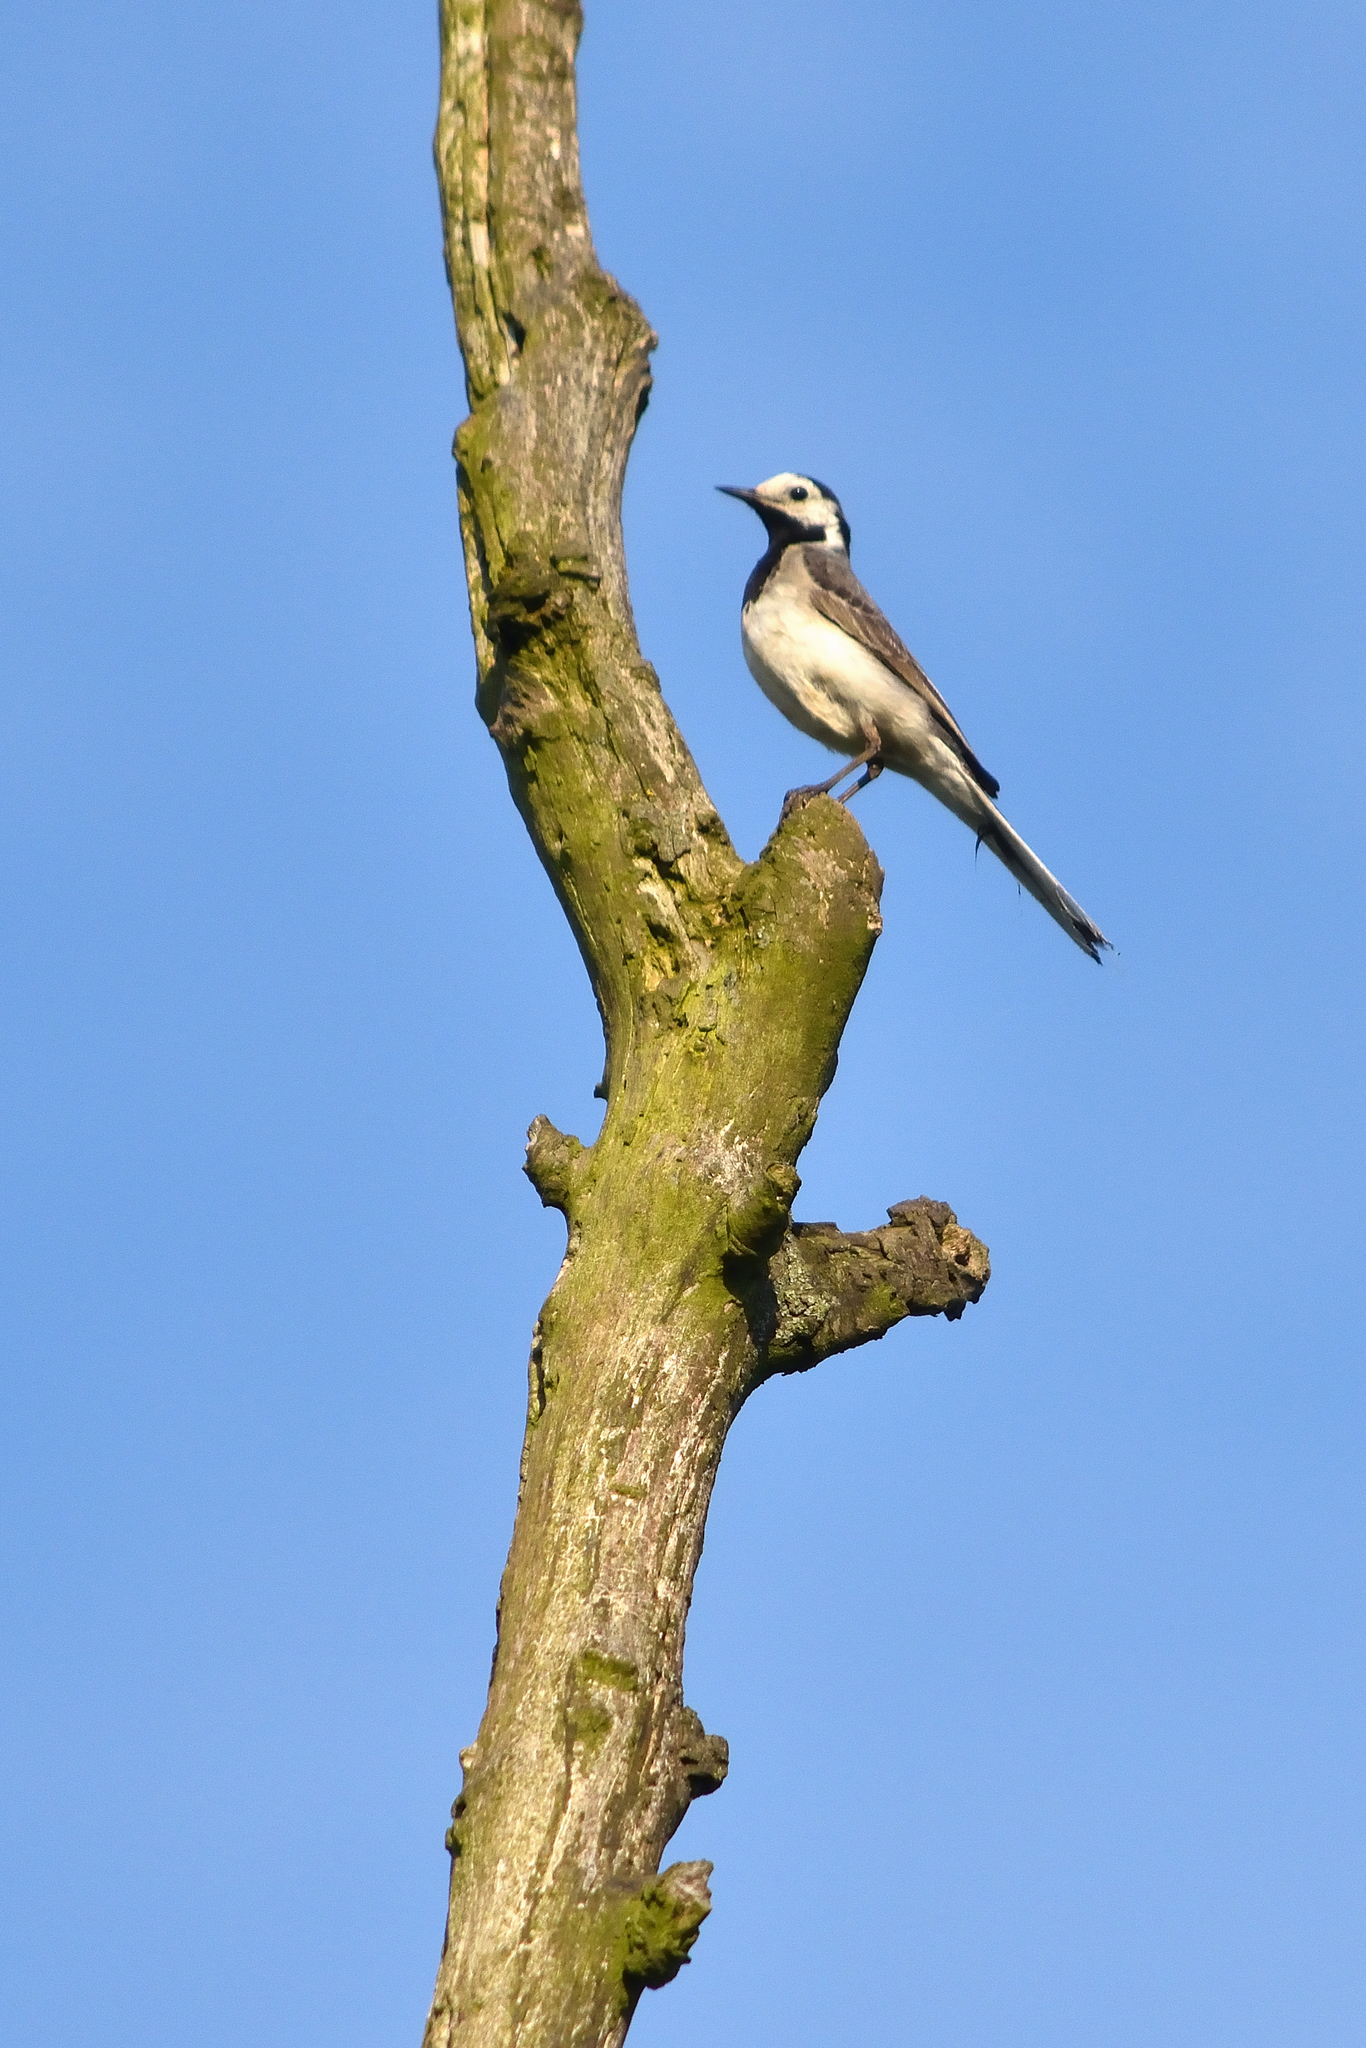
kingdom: Animalia
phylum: Chordata
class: Aves
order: Passeriformes
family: Motacillidae
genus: Motacilla
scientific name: Motacilla alba
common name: White wagtail
